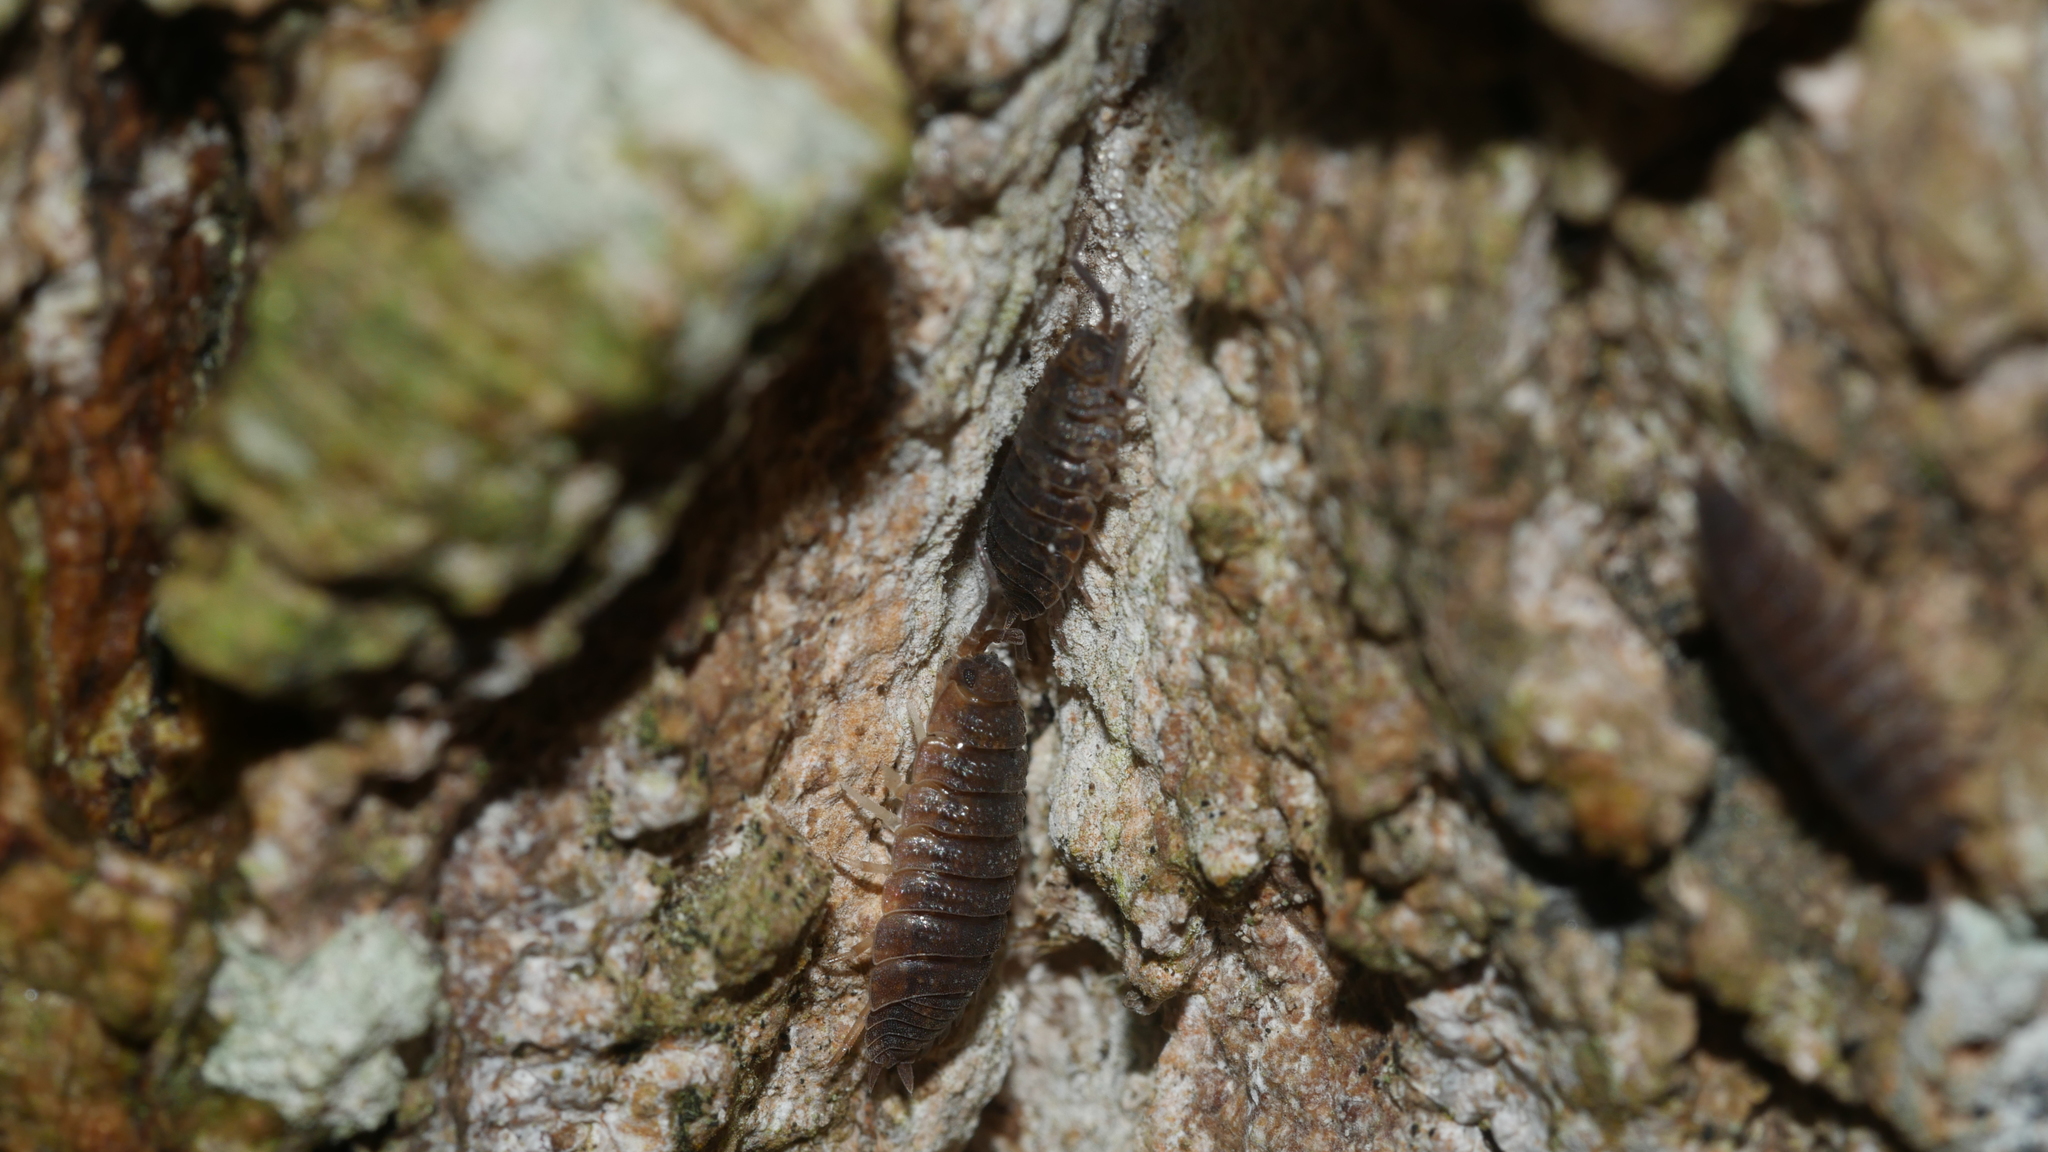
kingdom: Animalia
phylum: Arthropoda
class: Malacostraca
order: Isopoda
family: Porcellionidae
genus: Porcellio
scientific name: Porcellio scaber
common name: Common rough woodlouse
